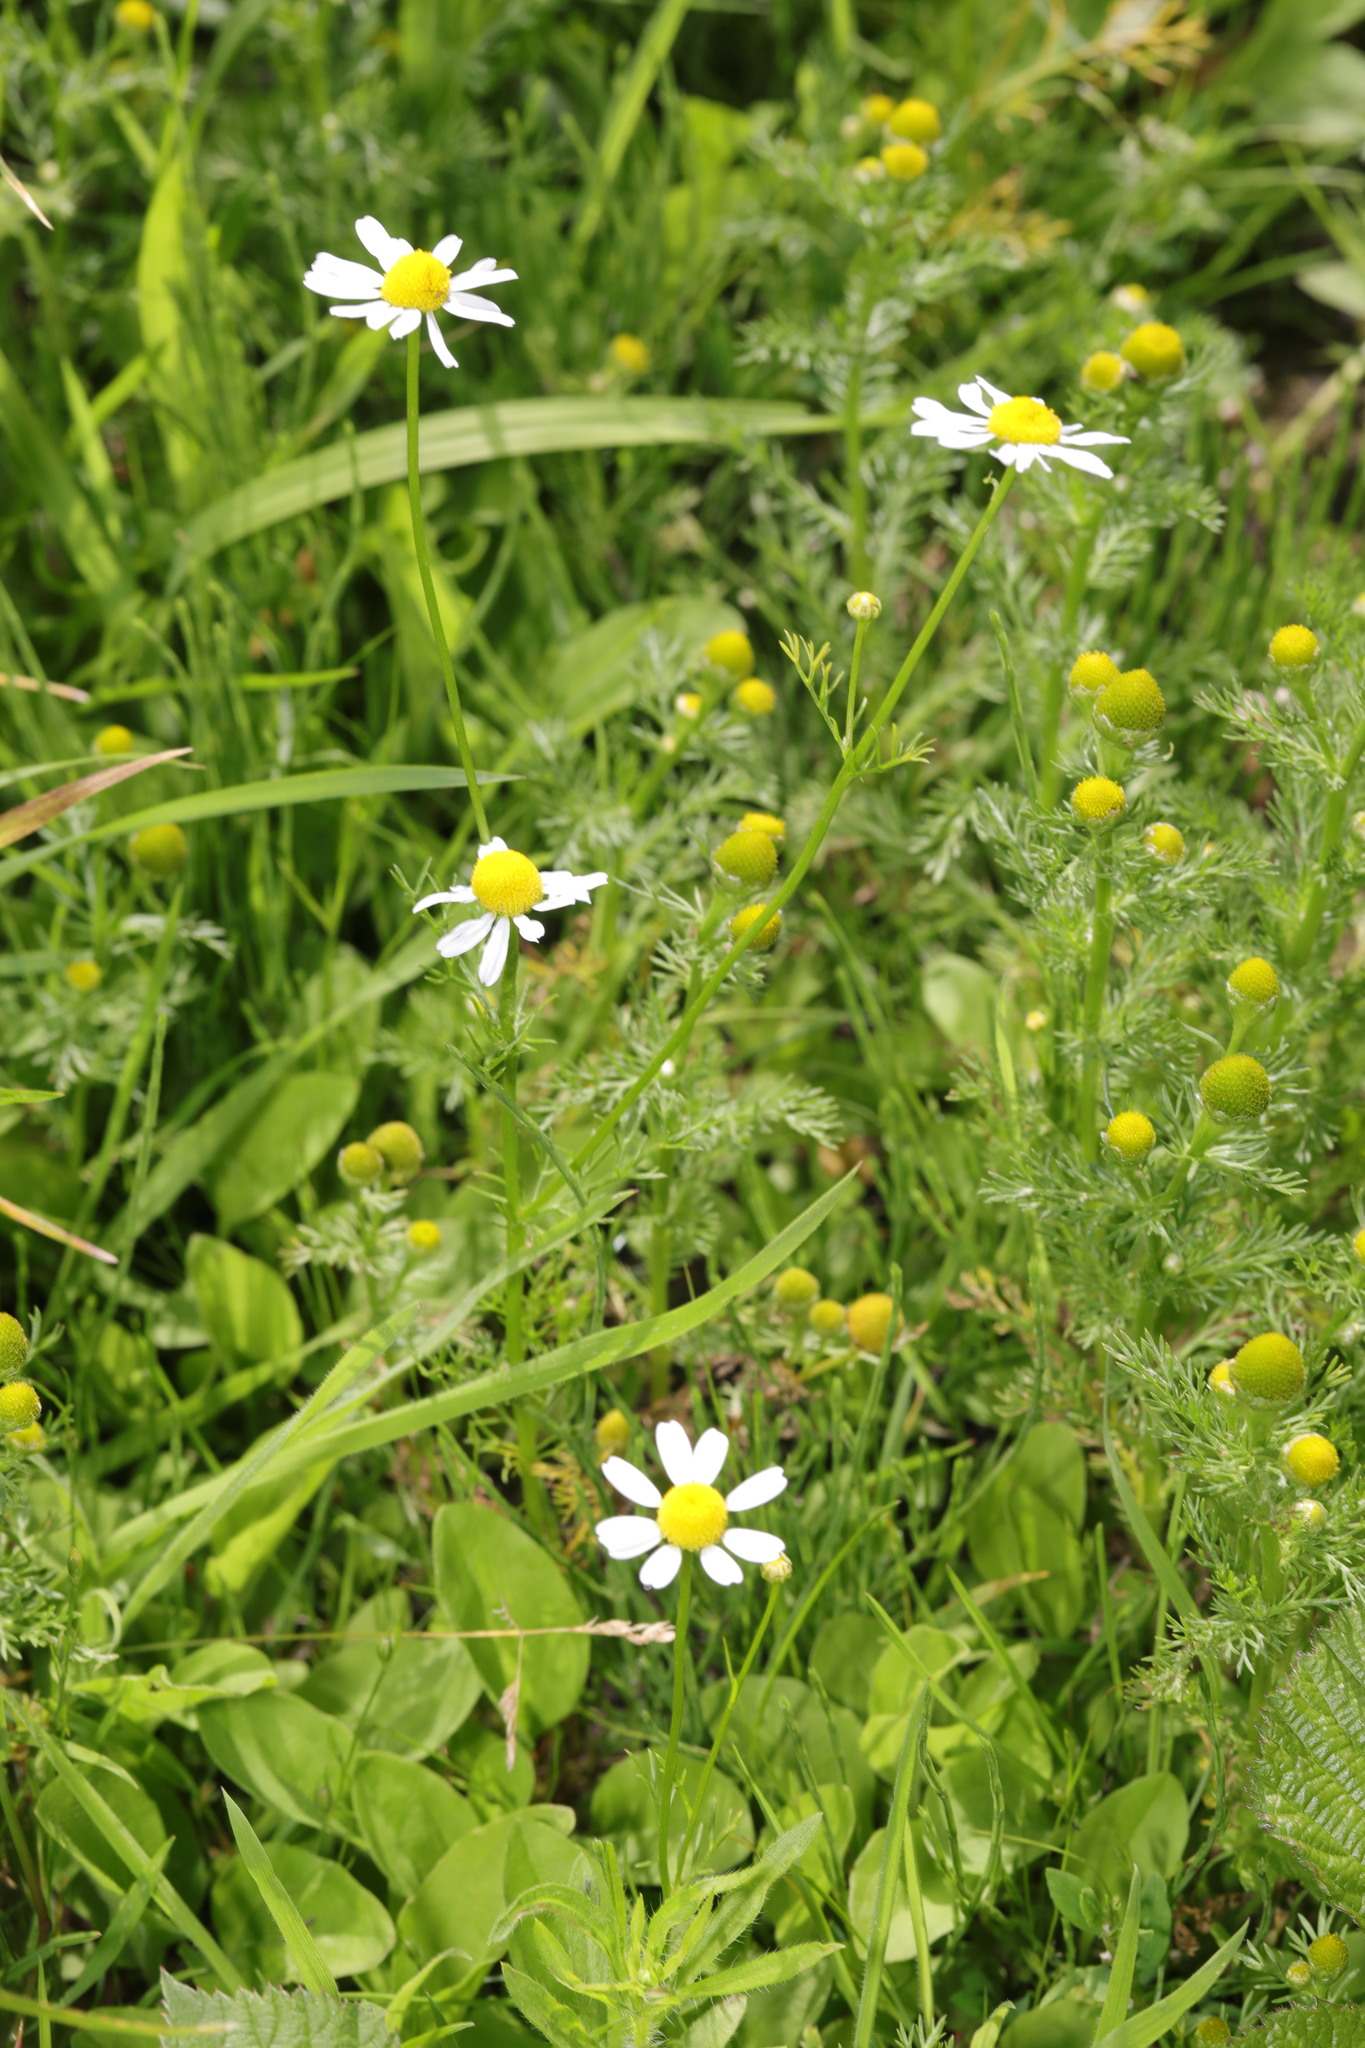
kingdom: Plantae
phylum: Tracheophyta
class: Magnoliopsida
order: Asterales
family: Asteraceae
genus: Matricaria
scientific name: Matricaria chamomilla
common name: Scented mayweed
